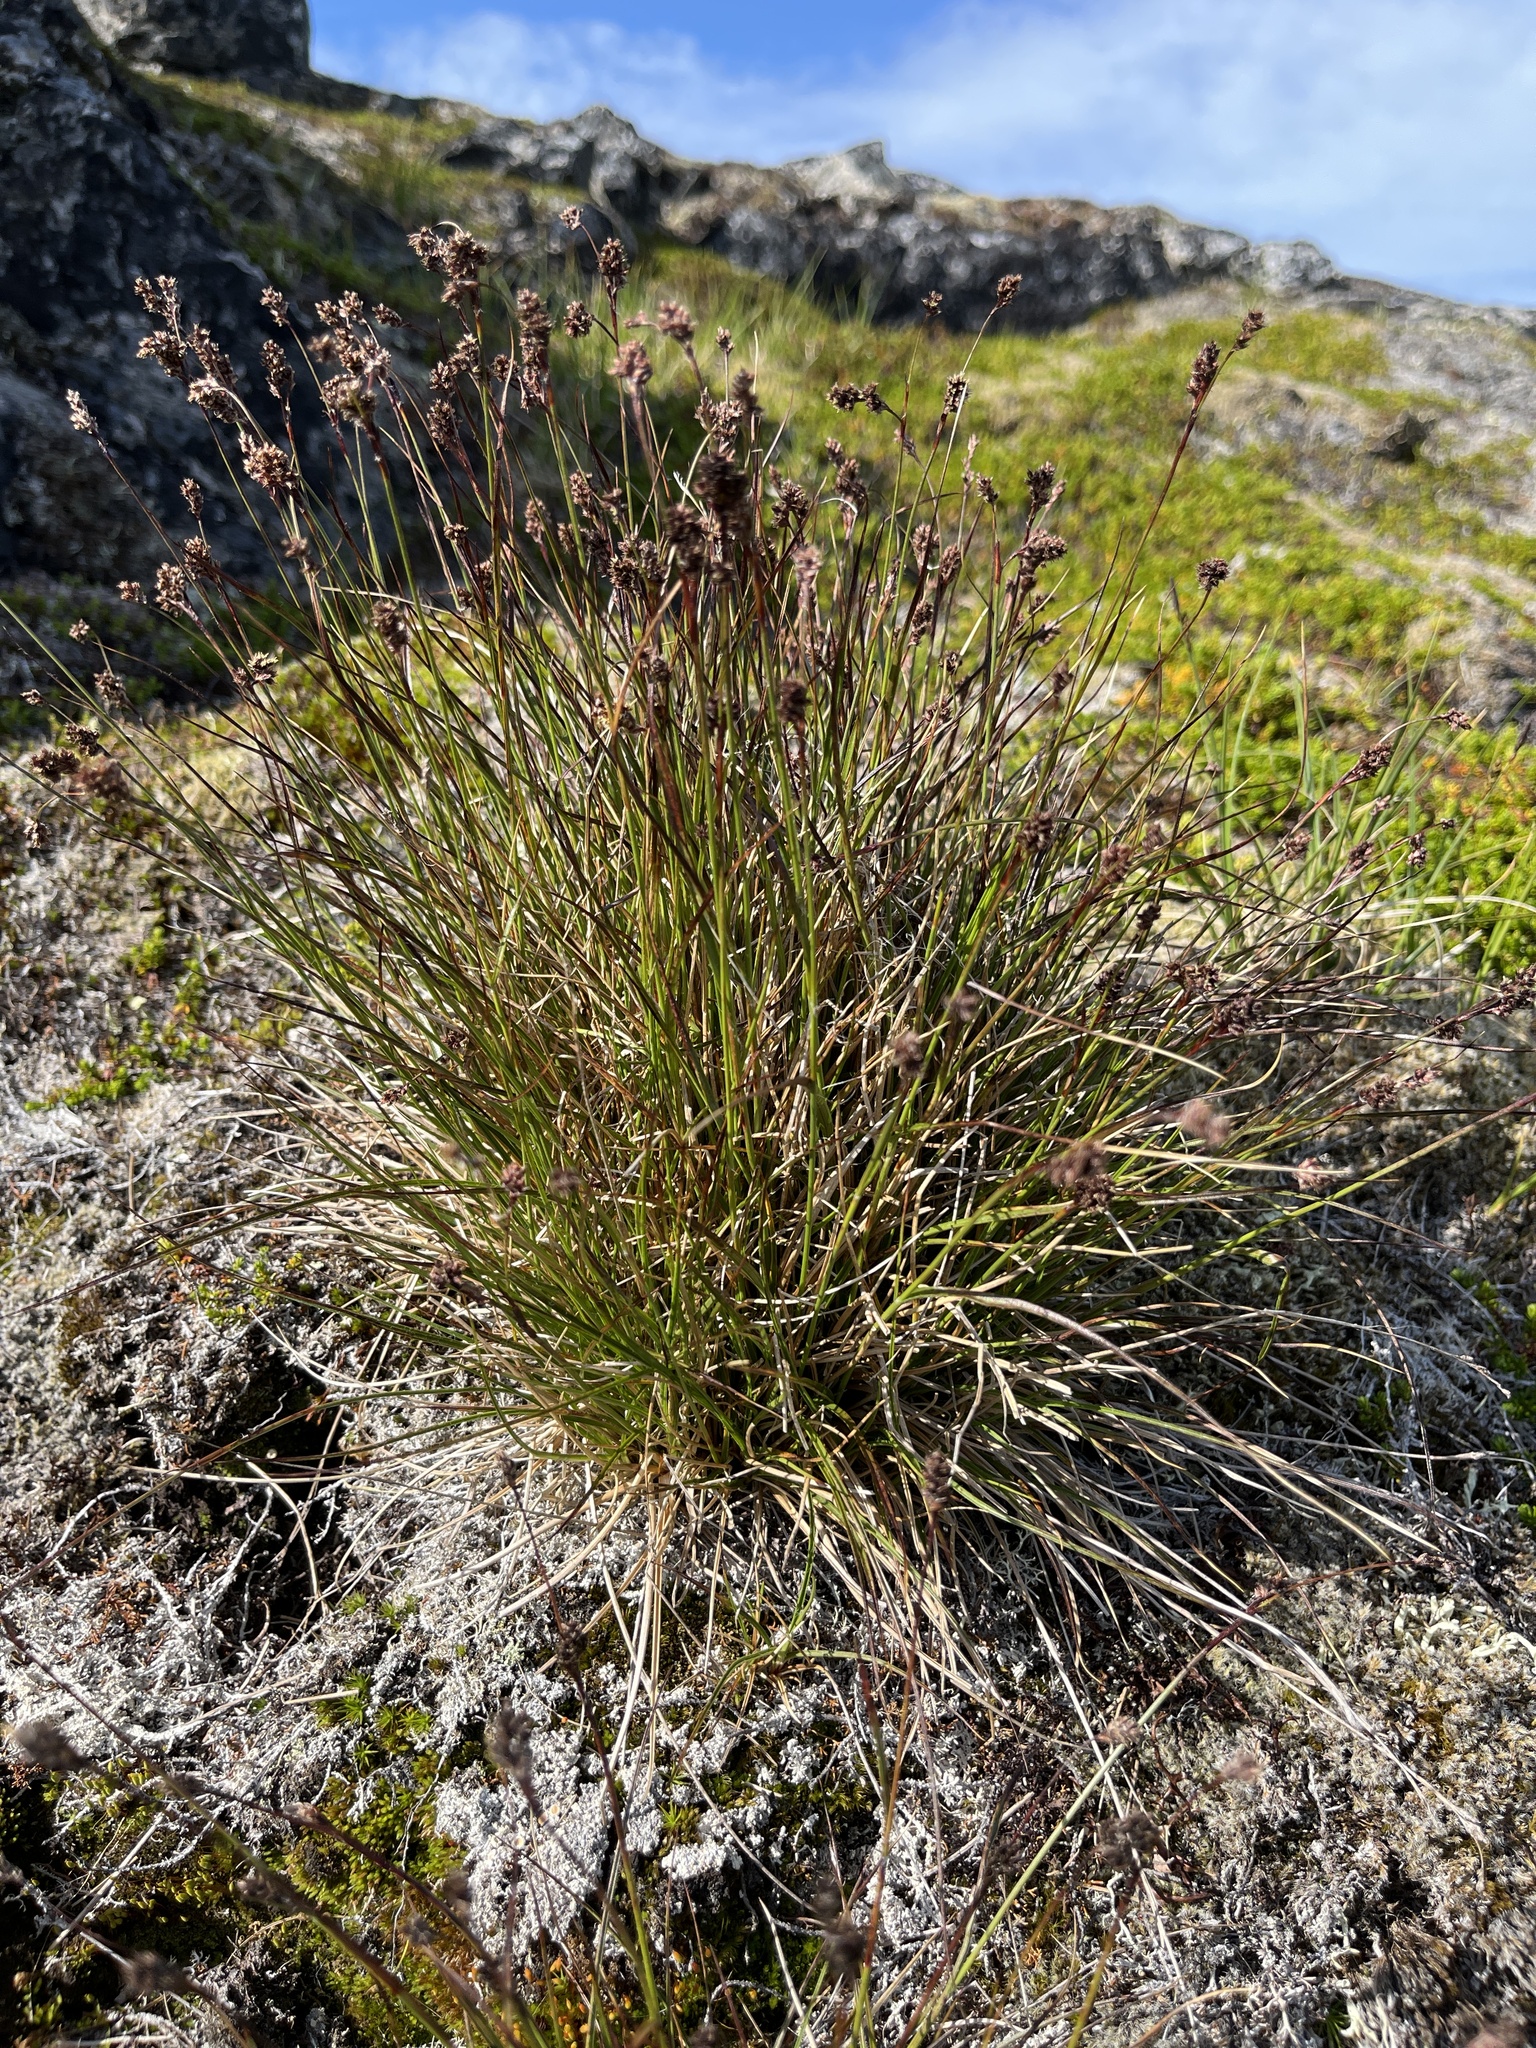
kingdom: Plantae
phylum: Tracheophyta
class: Liliopsida
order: Poales
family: Juncaceae
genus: Luzula
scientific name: Luzula confusa
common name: Northern wood rush
